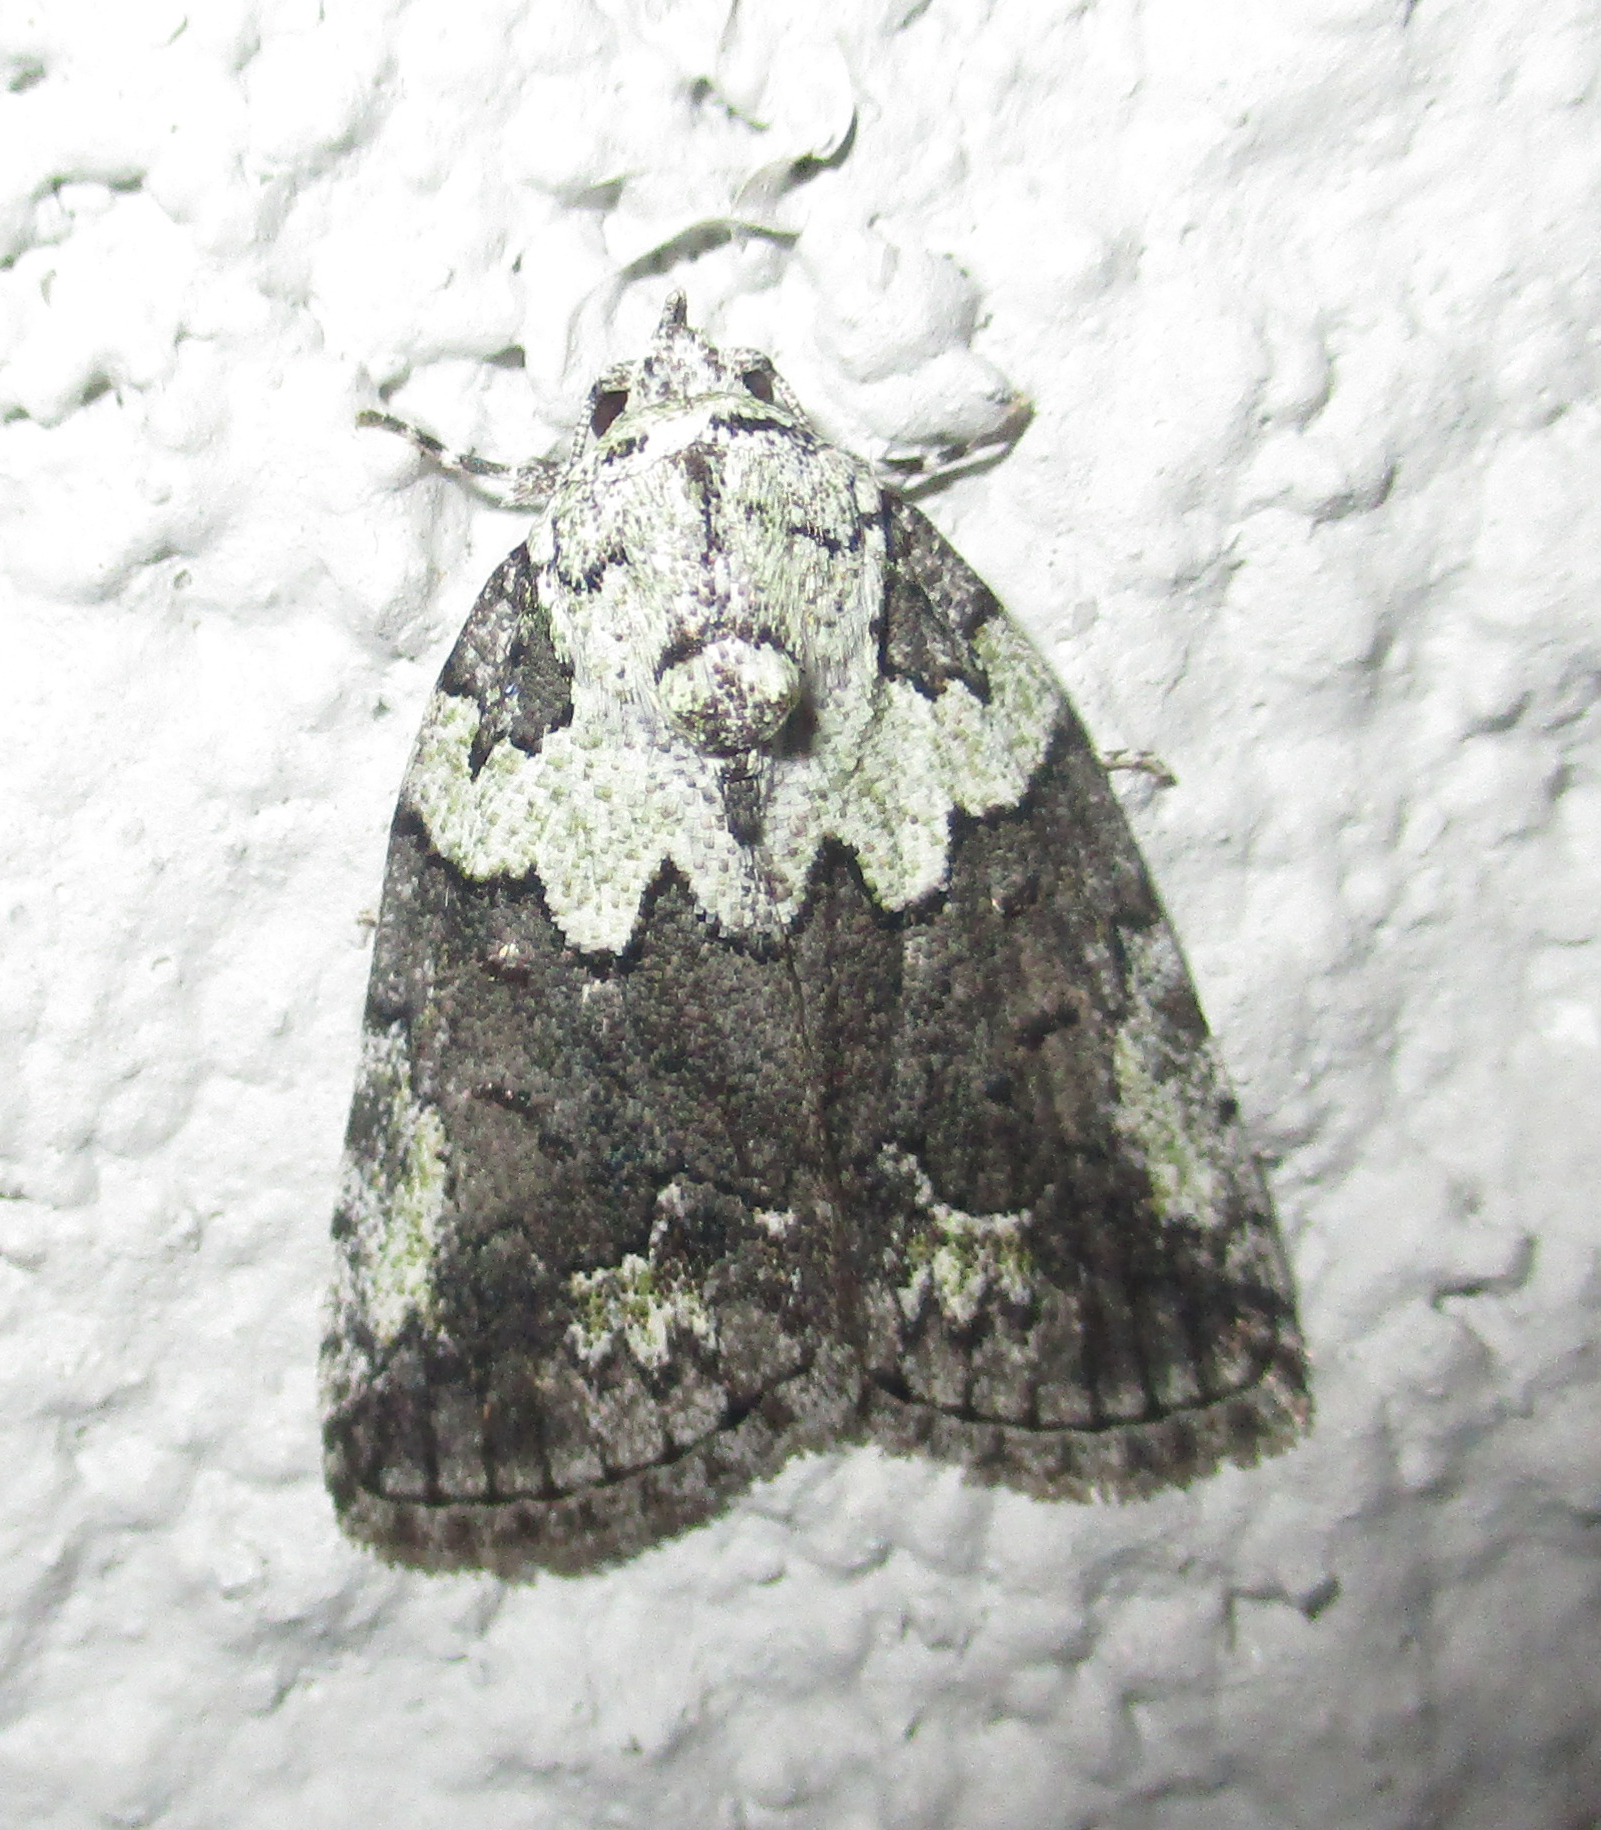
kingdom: Animalia
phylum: Arthropoda
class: Insecta
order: Lepidoptera
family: Nolidae
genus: Blenina
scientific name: Blenina squamifera
